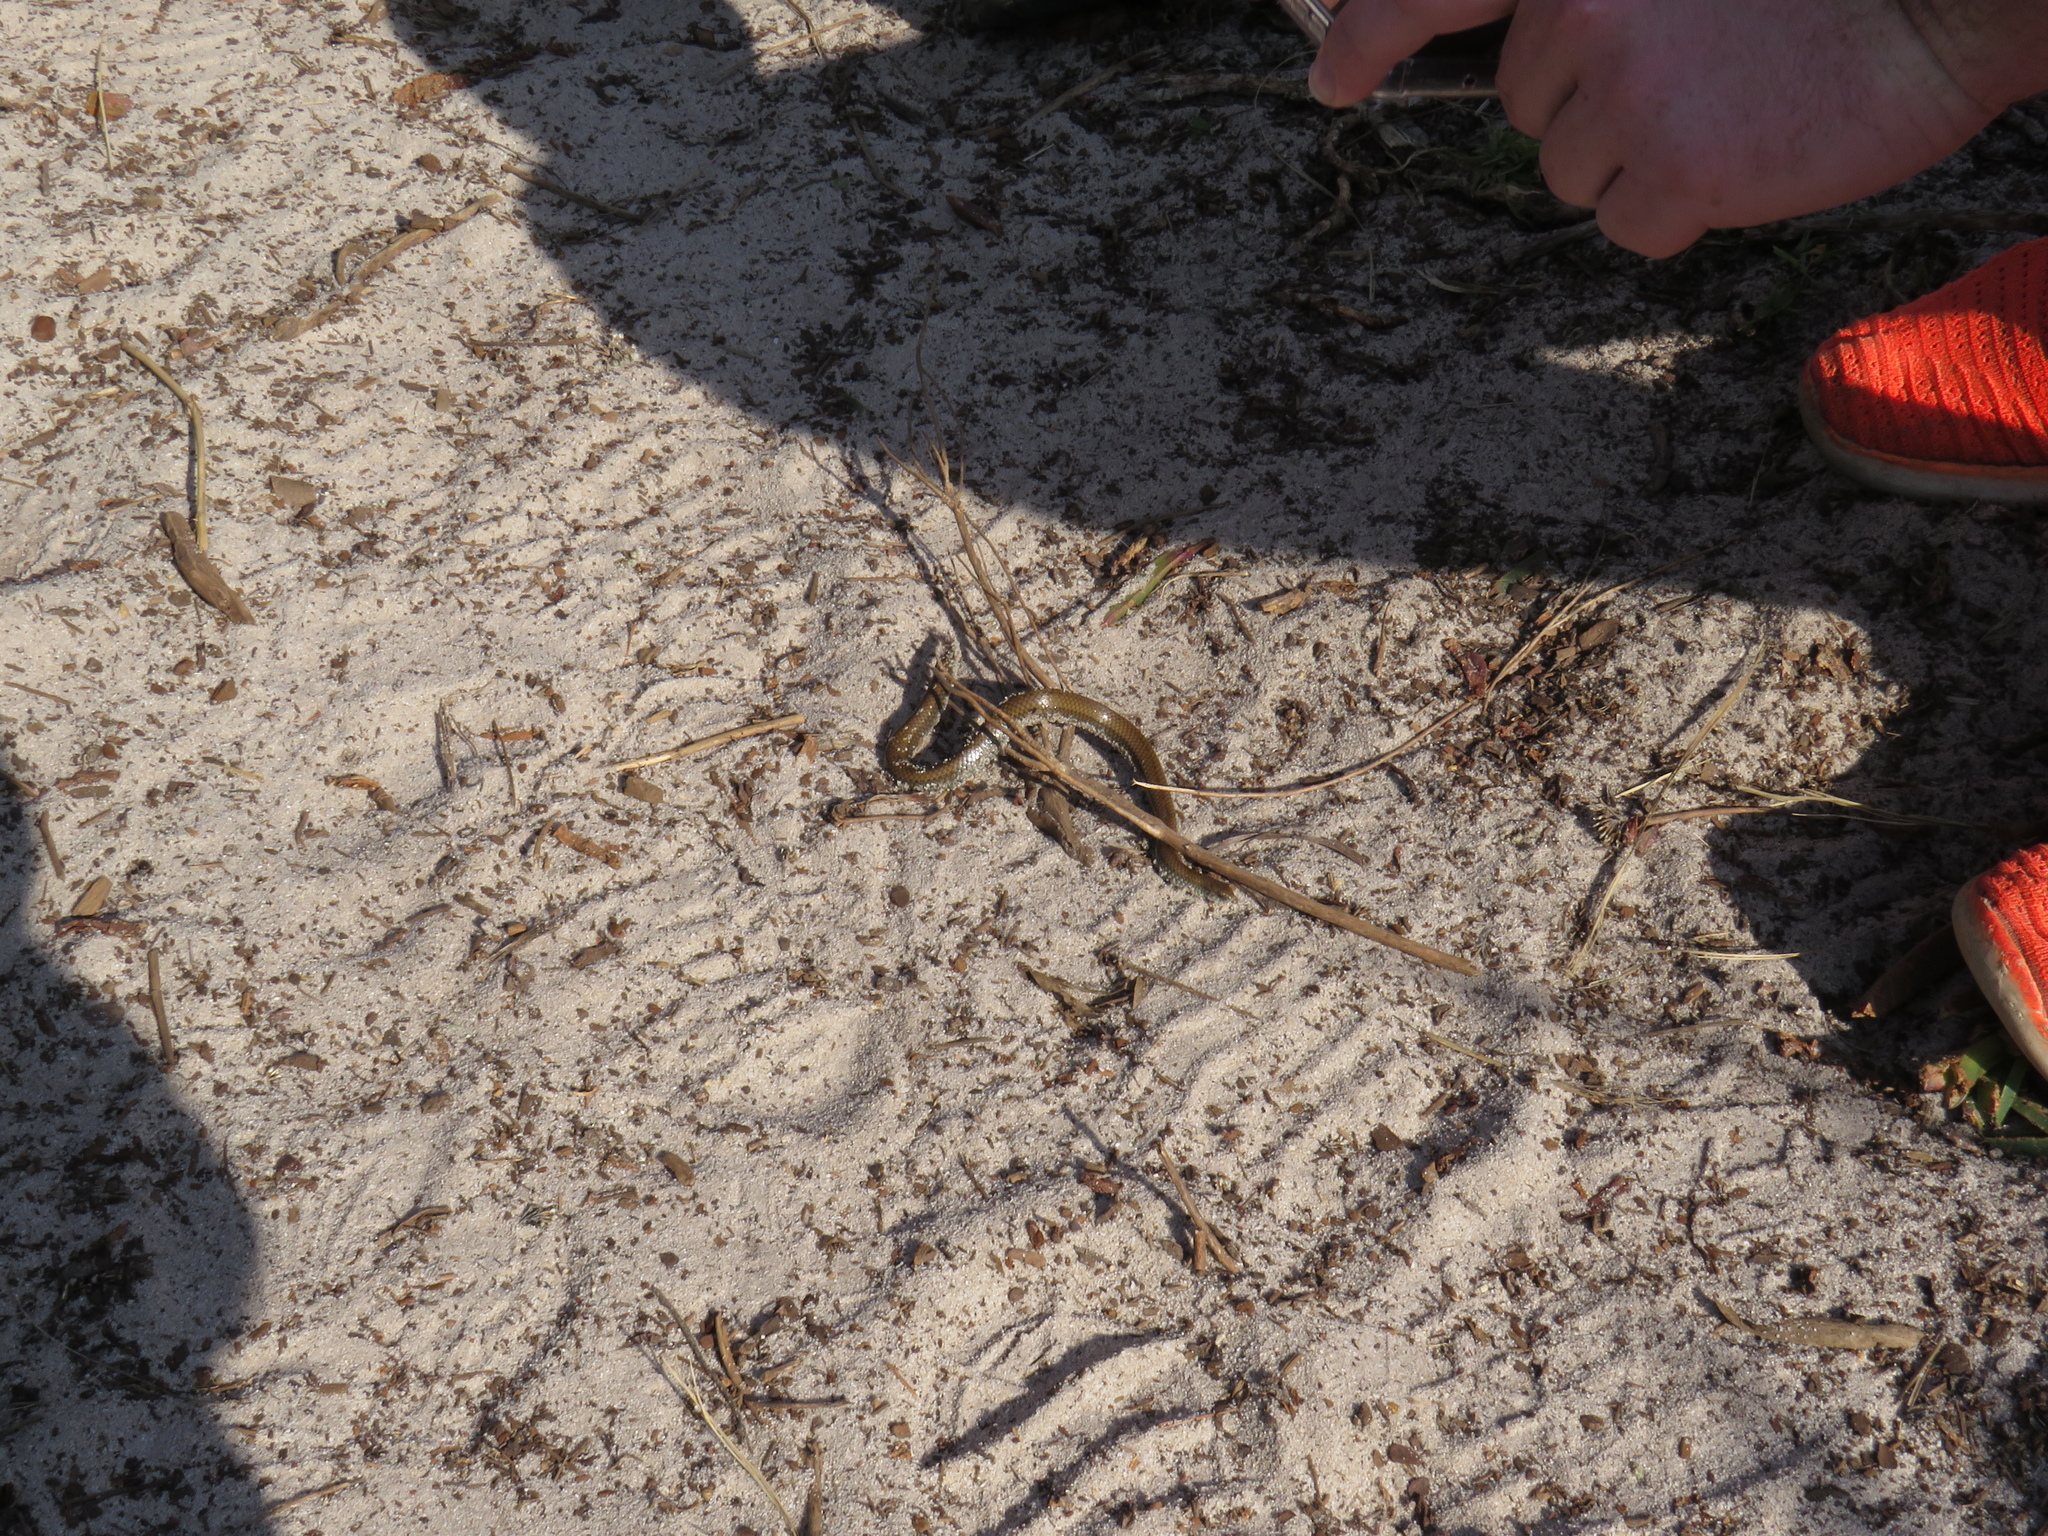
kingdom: Animalia
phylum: Chordata
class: Squamata
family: Pseudoxyrhophiidae
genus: Duberria
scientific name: Duberria lutrix
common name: Common slug eater
